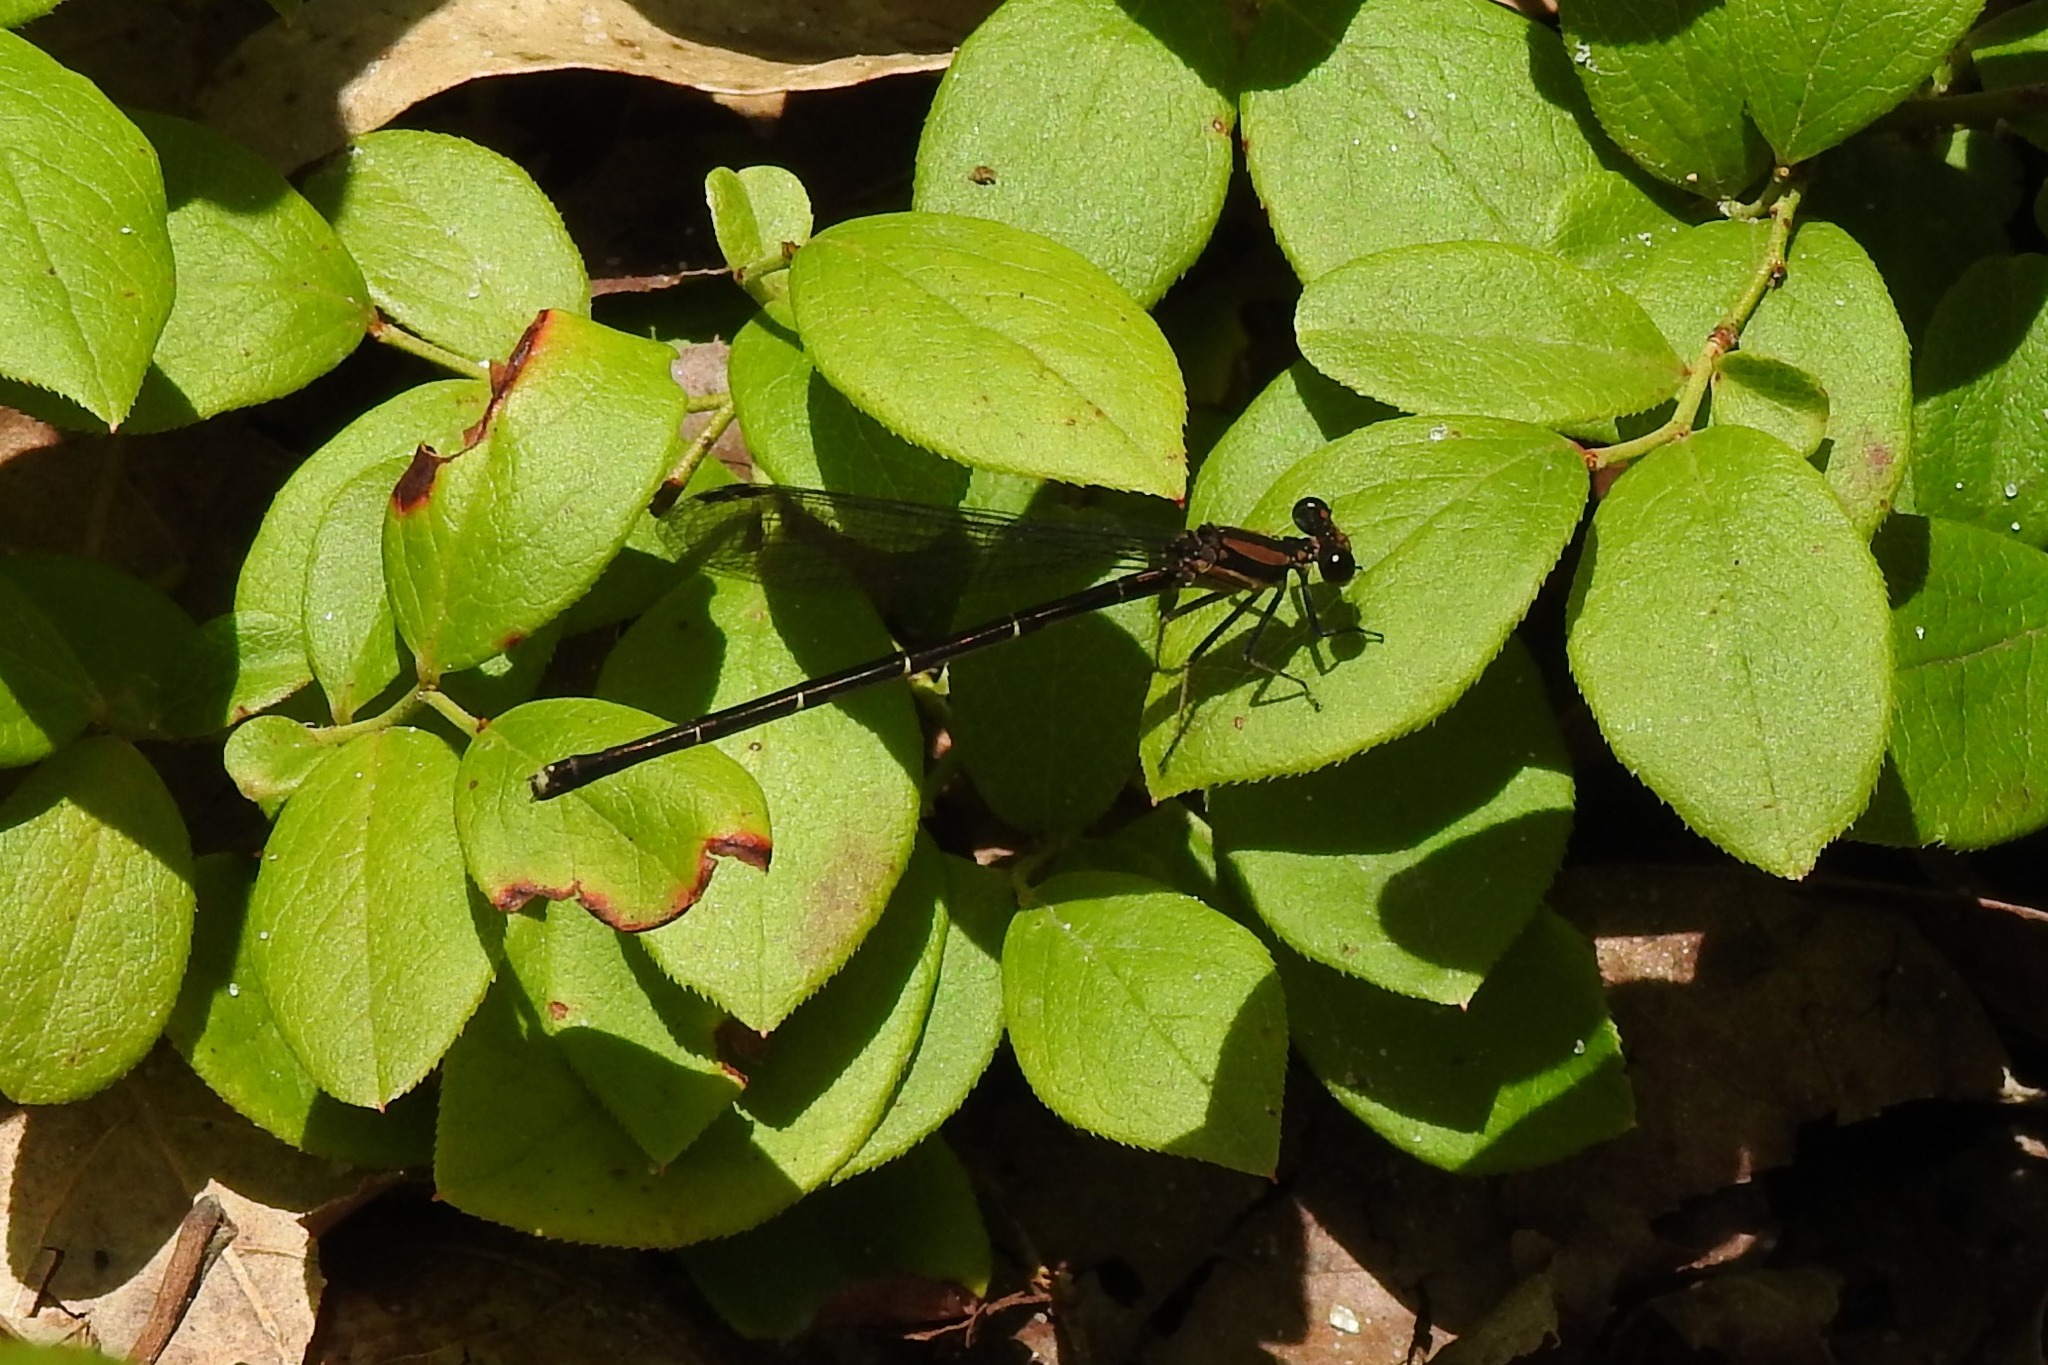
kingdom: Animalia
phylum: Arthropoda
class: Insecta
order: Odonata
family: Coenagrionidae
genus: Argia
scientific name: Argia tibialis
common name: Blue-tipped dancer
